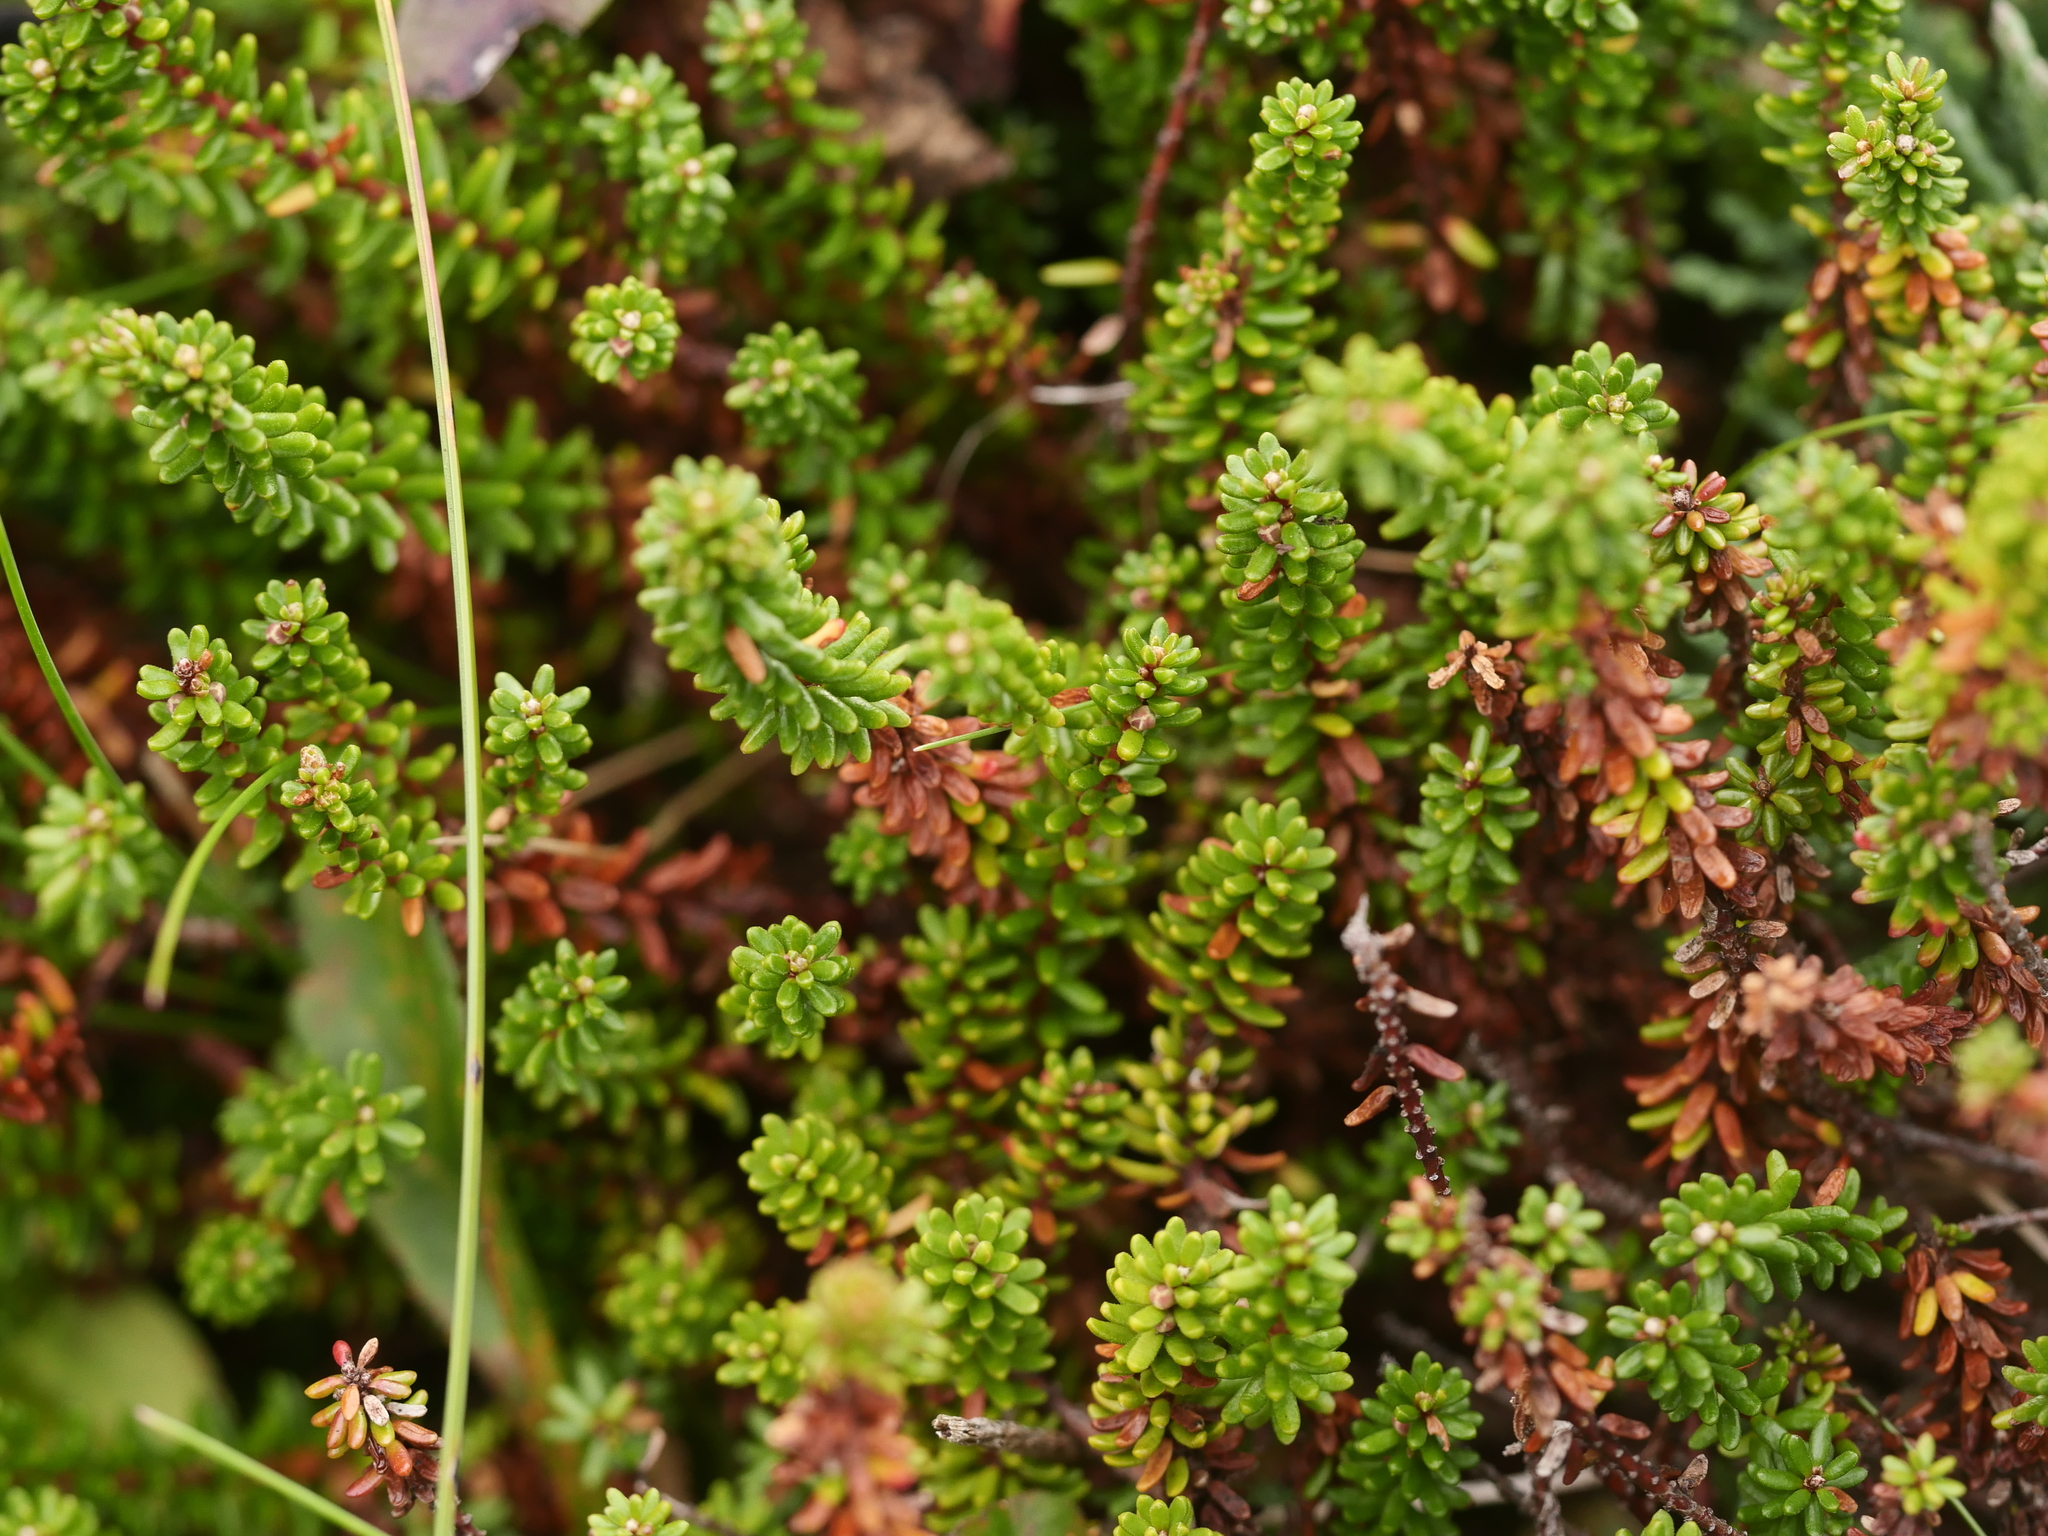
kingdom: Plantae
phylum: Tracheophyta
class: Magnoliopsida
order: Ericales
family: Ericaceae
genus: Empetrum
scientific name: Empetrum nigrum
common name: Black crowberry
